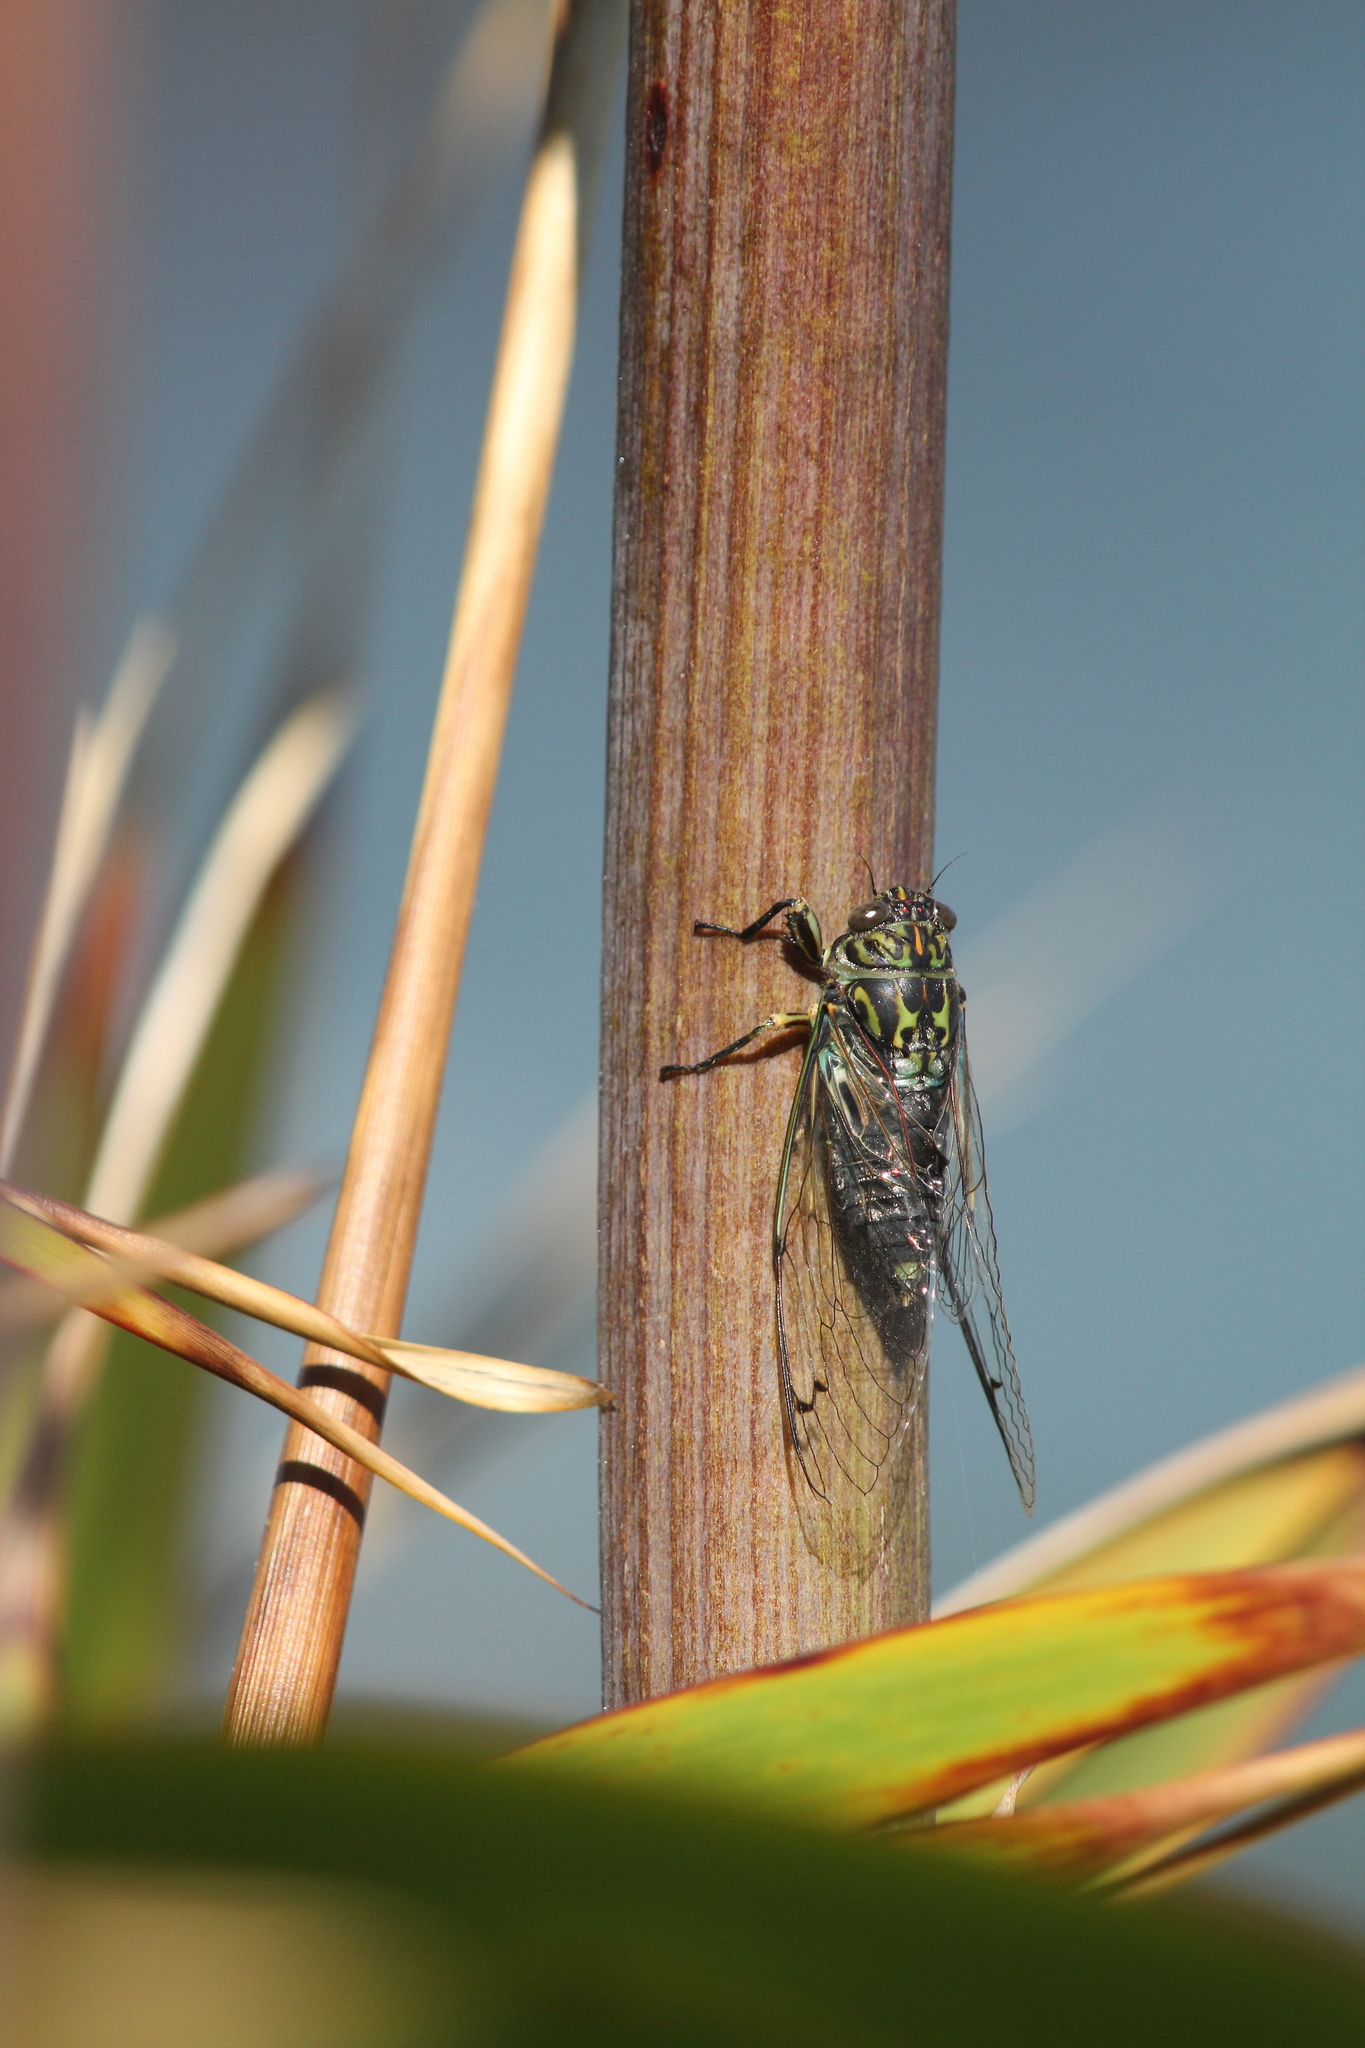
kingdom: Animalia
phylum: Arthropoda
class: Insecta
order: Hemiptera
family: Cicadidae
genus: Amphipsalta
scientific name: Amphipsalta zelandica
